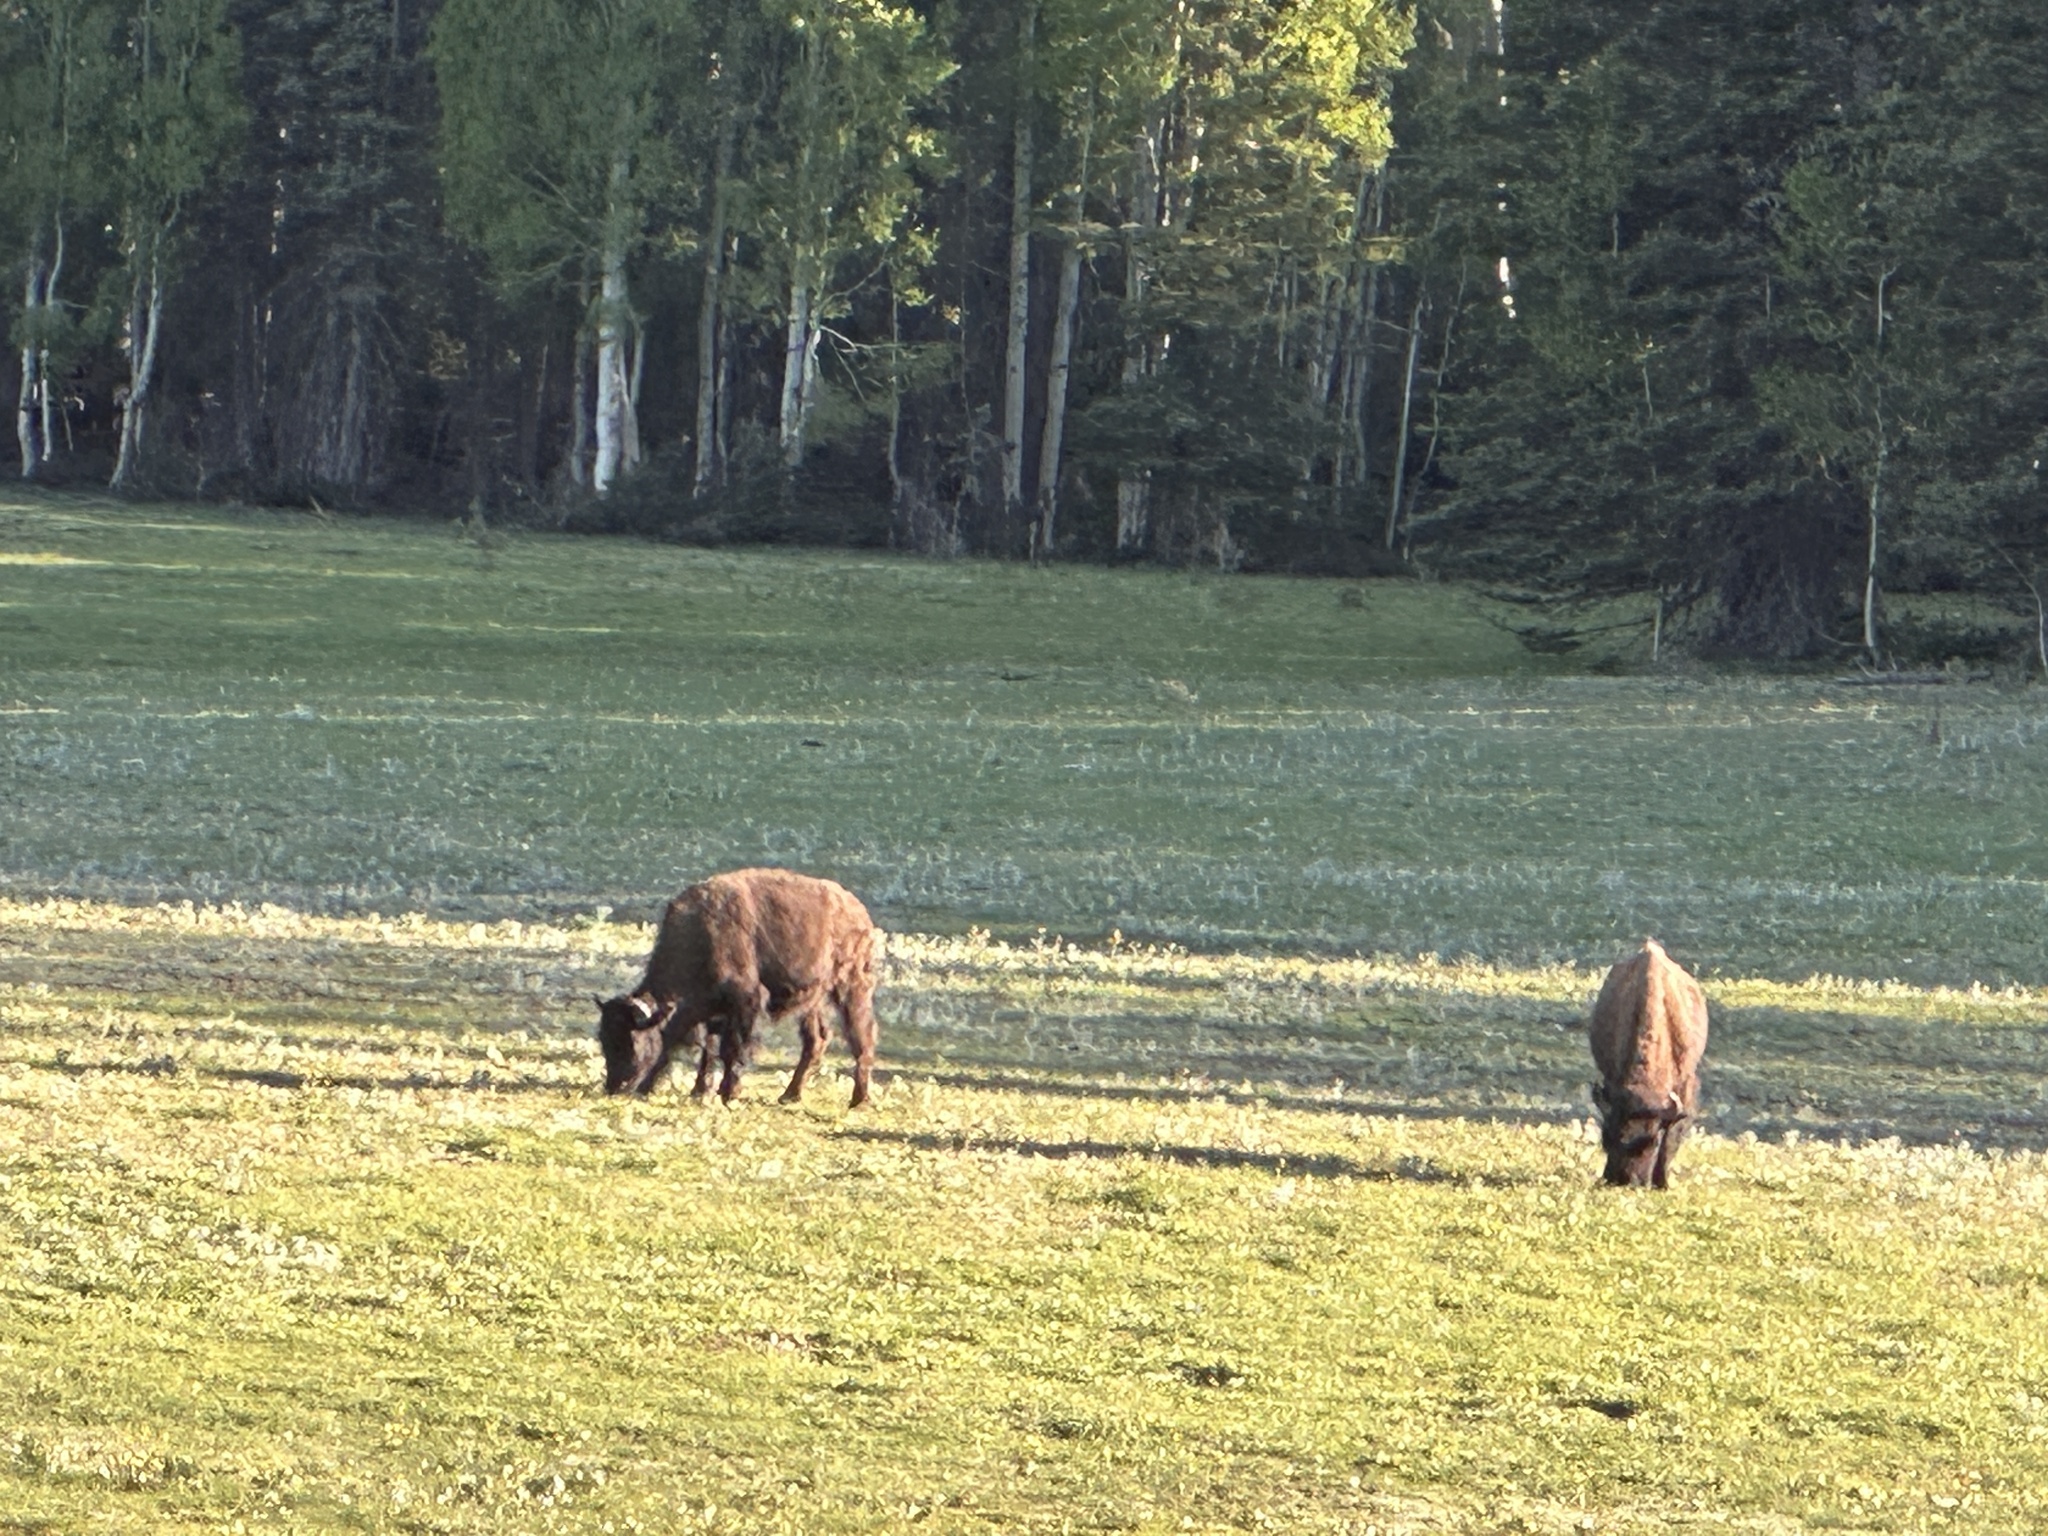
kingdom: Animalia
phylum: Chordata
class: Mammalia
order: Artiodactyla
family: Bovidae
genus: Bison
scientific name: Bison bison
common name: American bison
